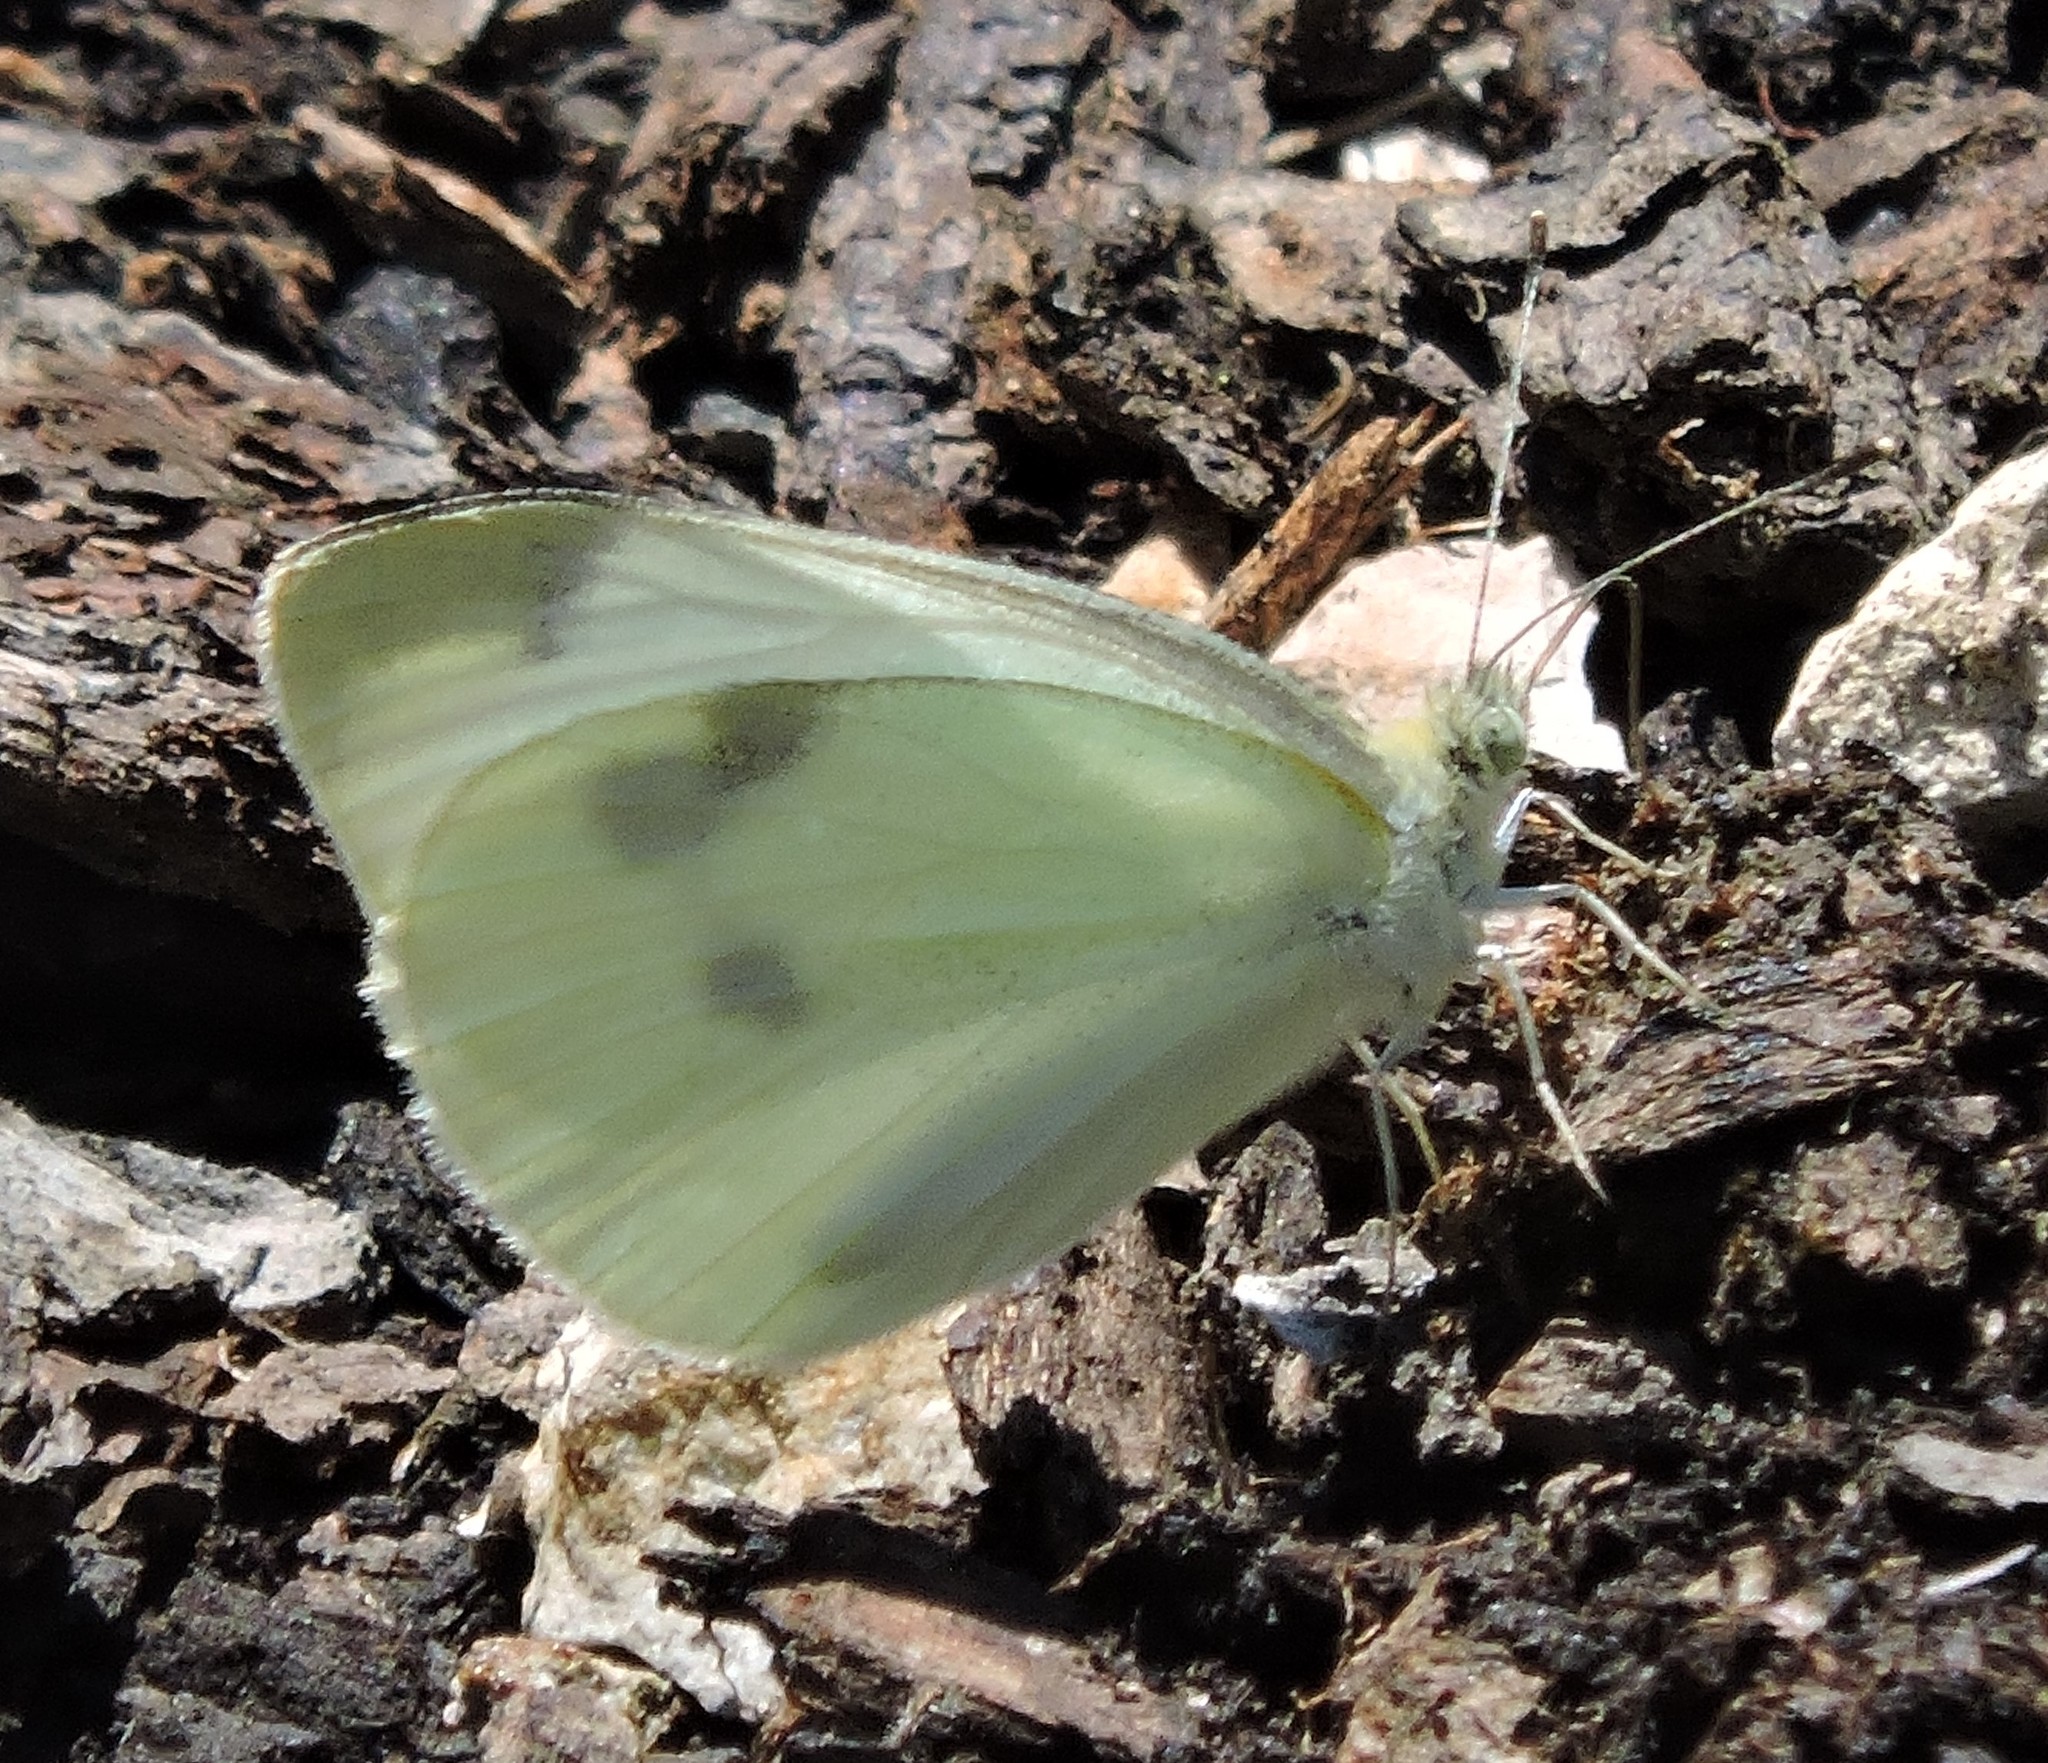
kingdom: Animalia
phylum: Arthropoda
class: Insecta
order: Lepidoptera
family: Pieridae
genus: Pieris
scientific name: Pieris rapae
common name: Small white
